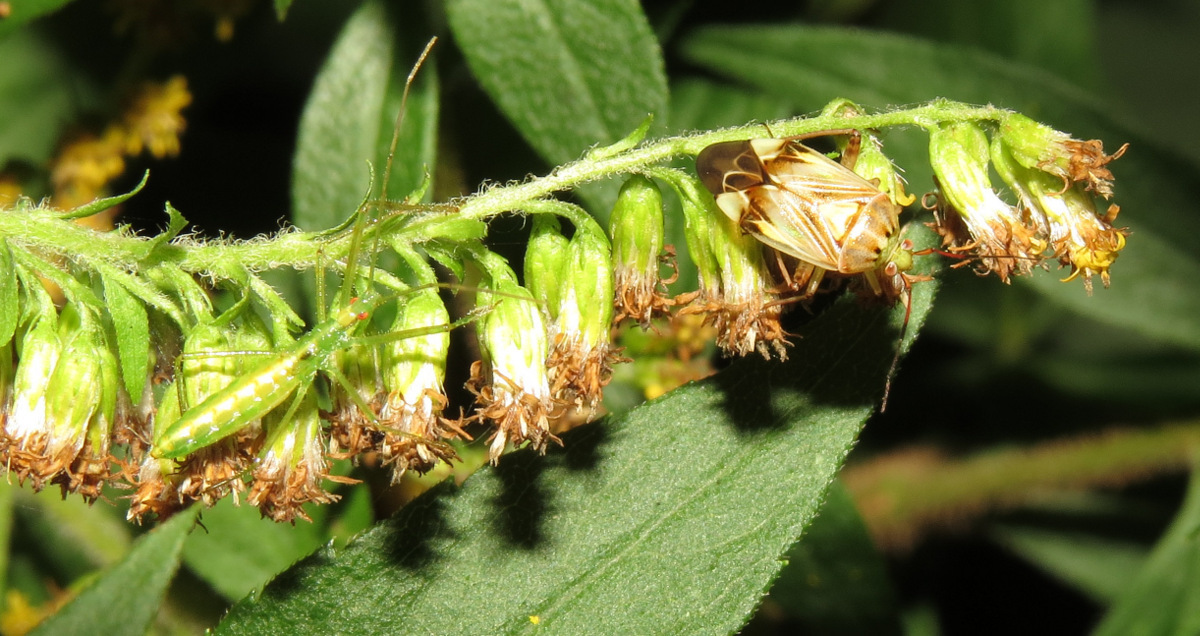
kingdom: Animalia
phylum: Arthropoda
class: Insecta
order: Hemiptera
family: Reduviidae
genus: Zelus
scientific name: Zelus luridus
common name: Pale green assassin bug
